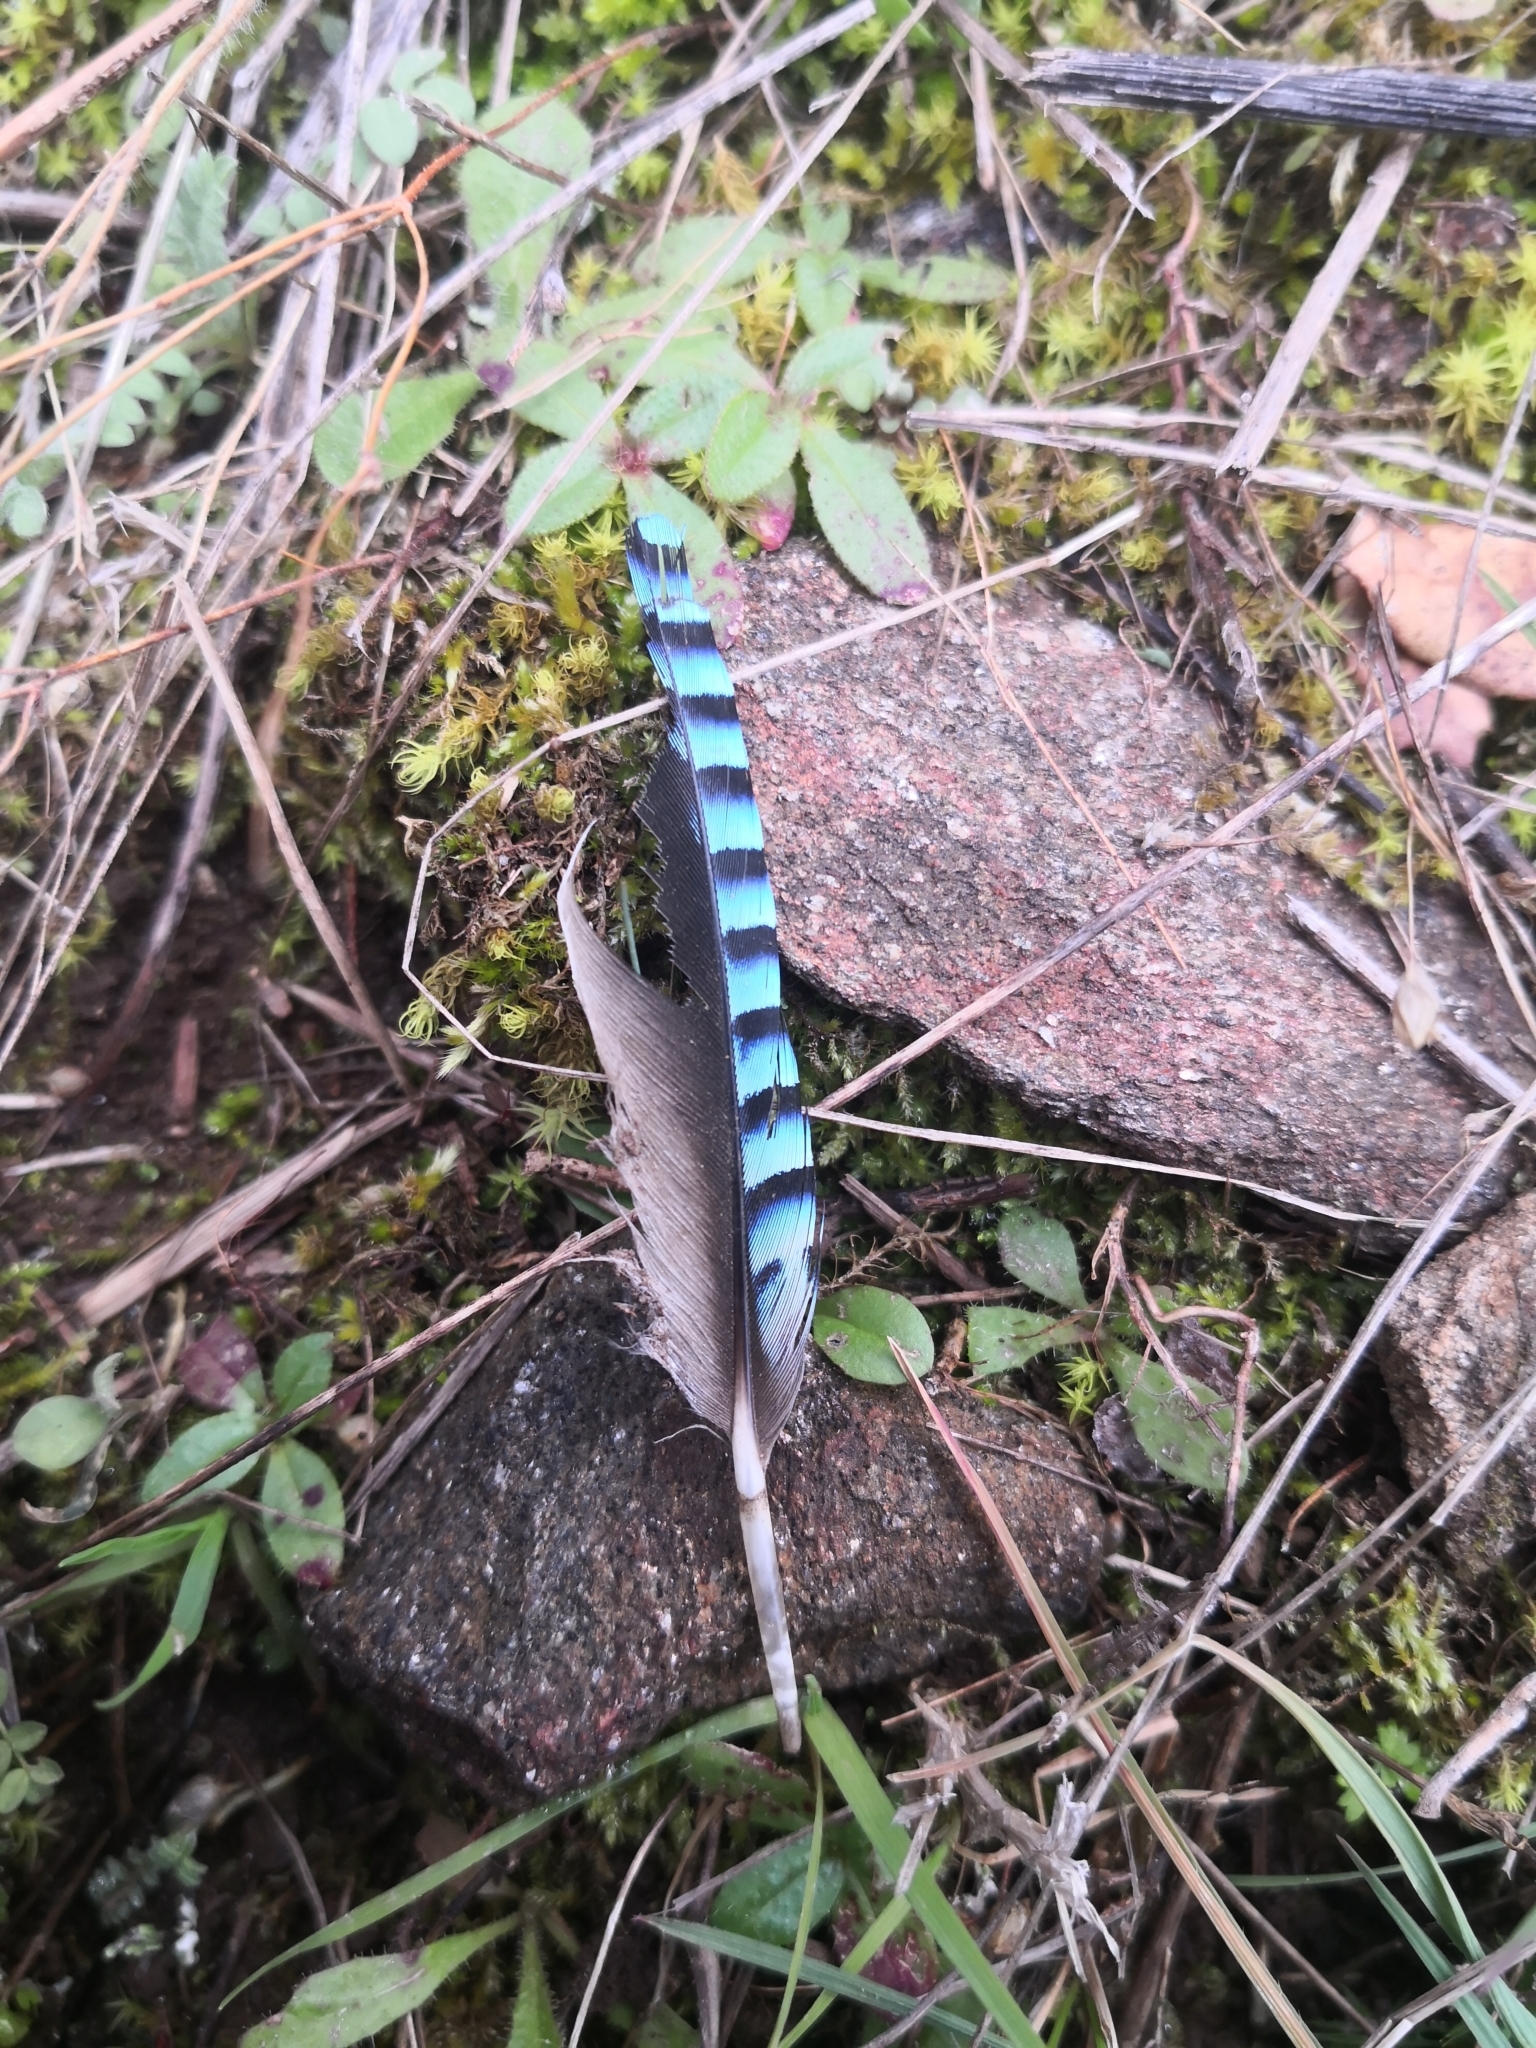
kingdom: Animalia
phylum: Chordata
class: Aves
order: Passeriformes
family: Corvidae
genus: Garrulus
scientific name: Garrulus glandarius
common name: Eurasian jay
